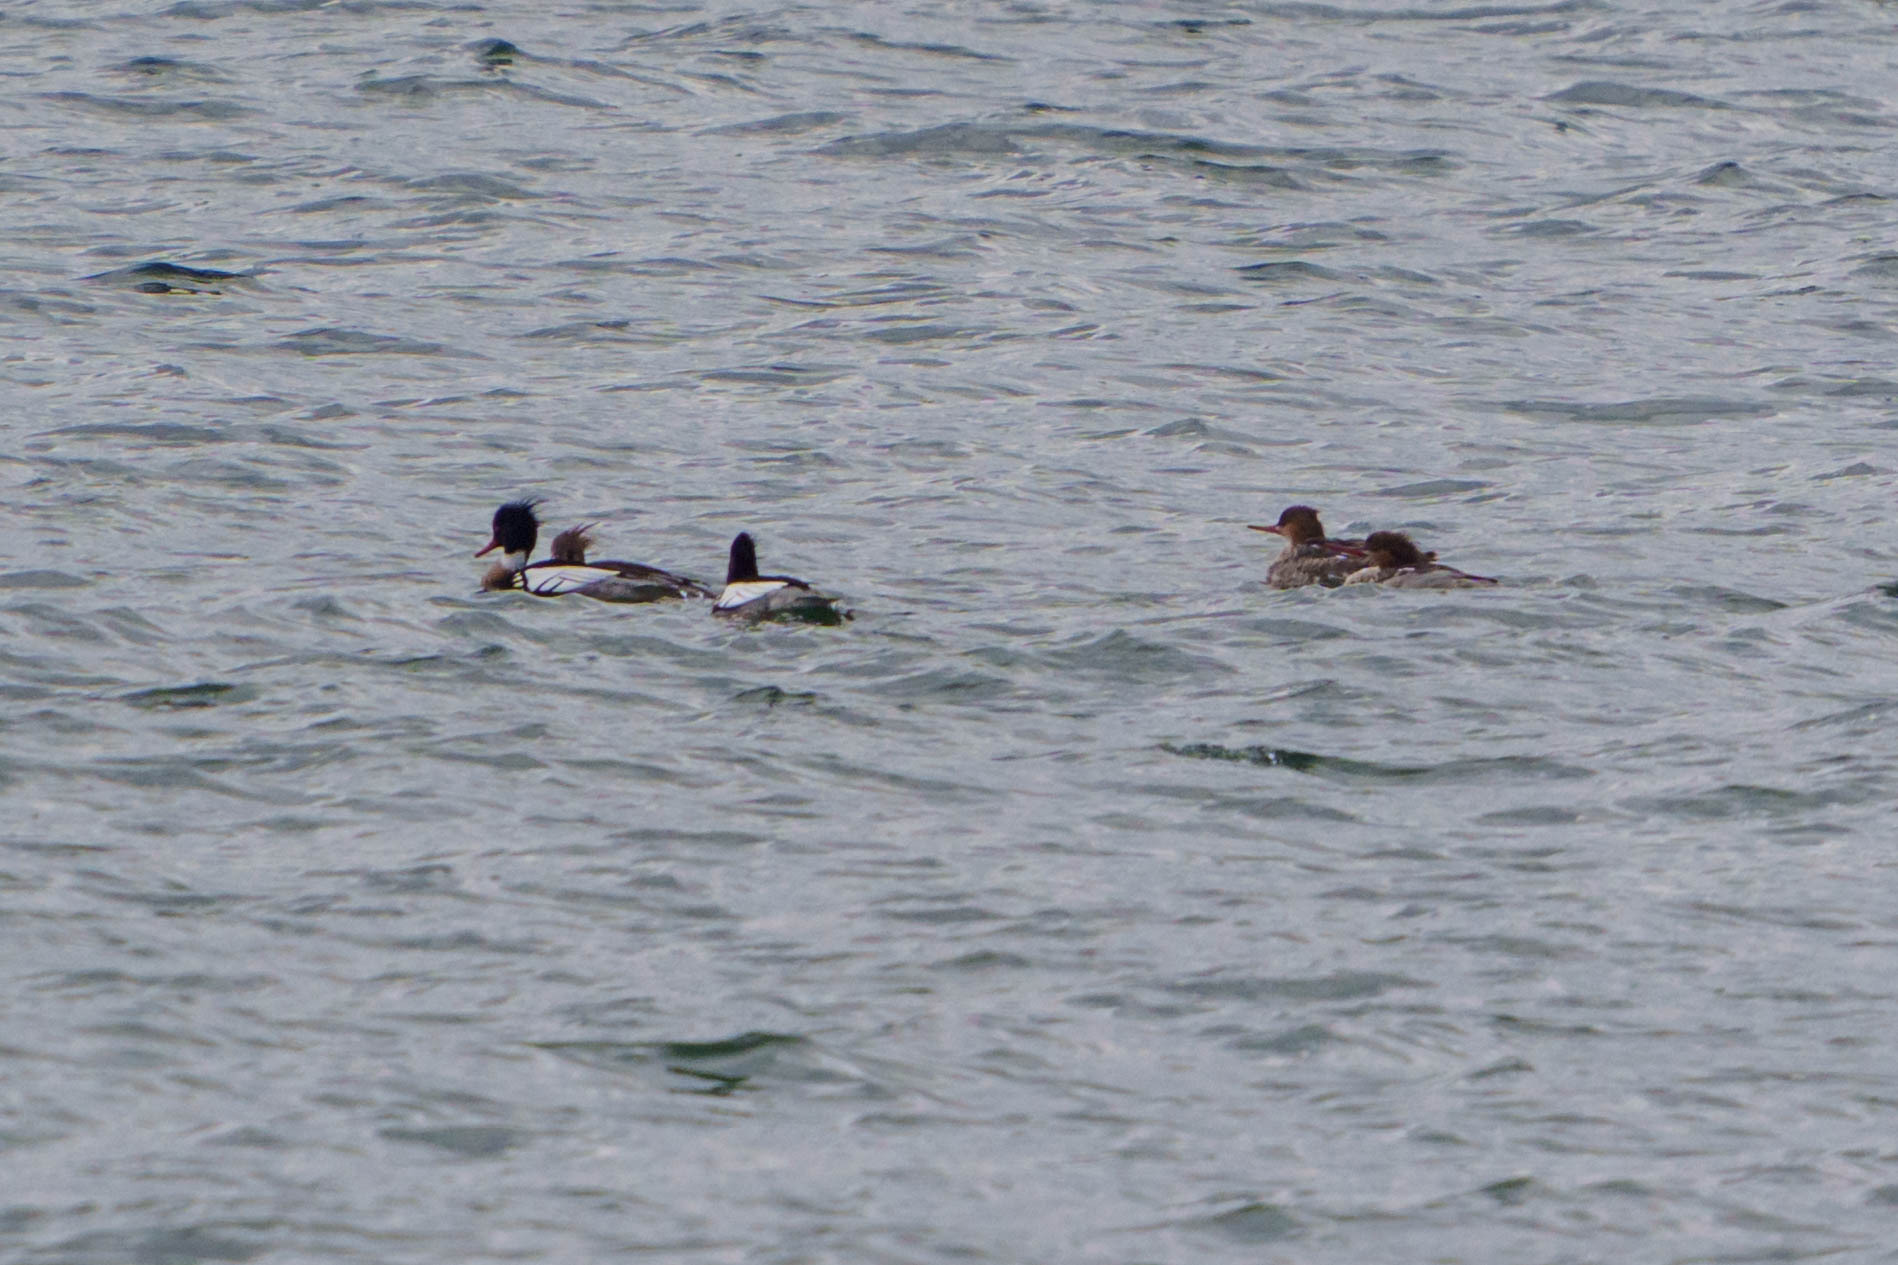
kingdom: Animalia
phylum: Chordata
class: Aves
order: Anseriformes
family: Anatidae
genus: Mergus
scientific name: Mergus serrator
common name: Red-breasted merganser
